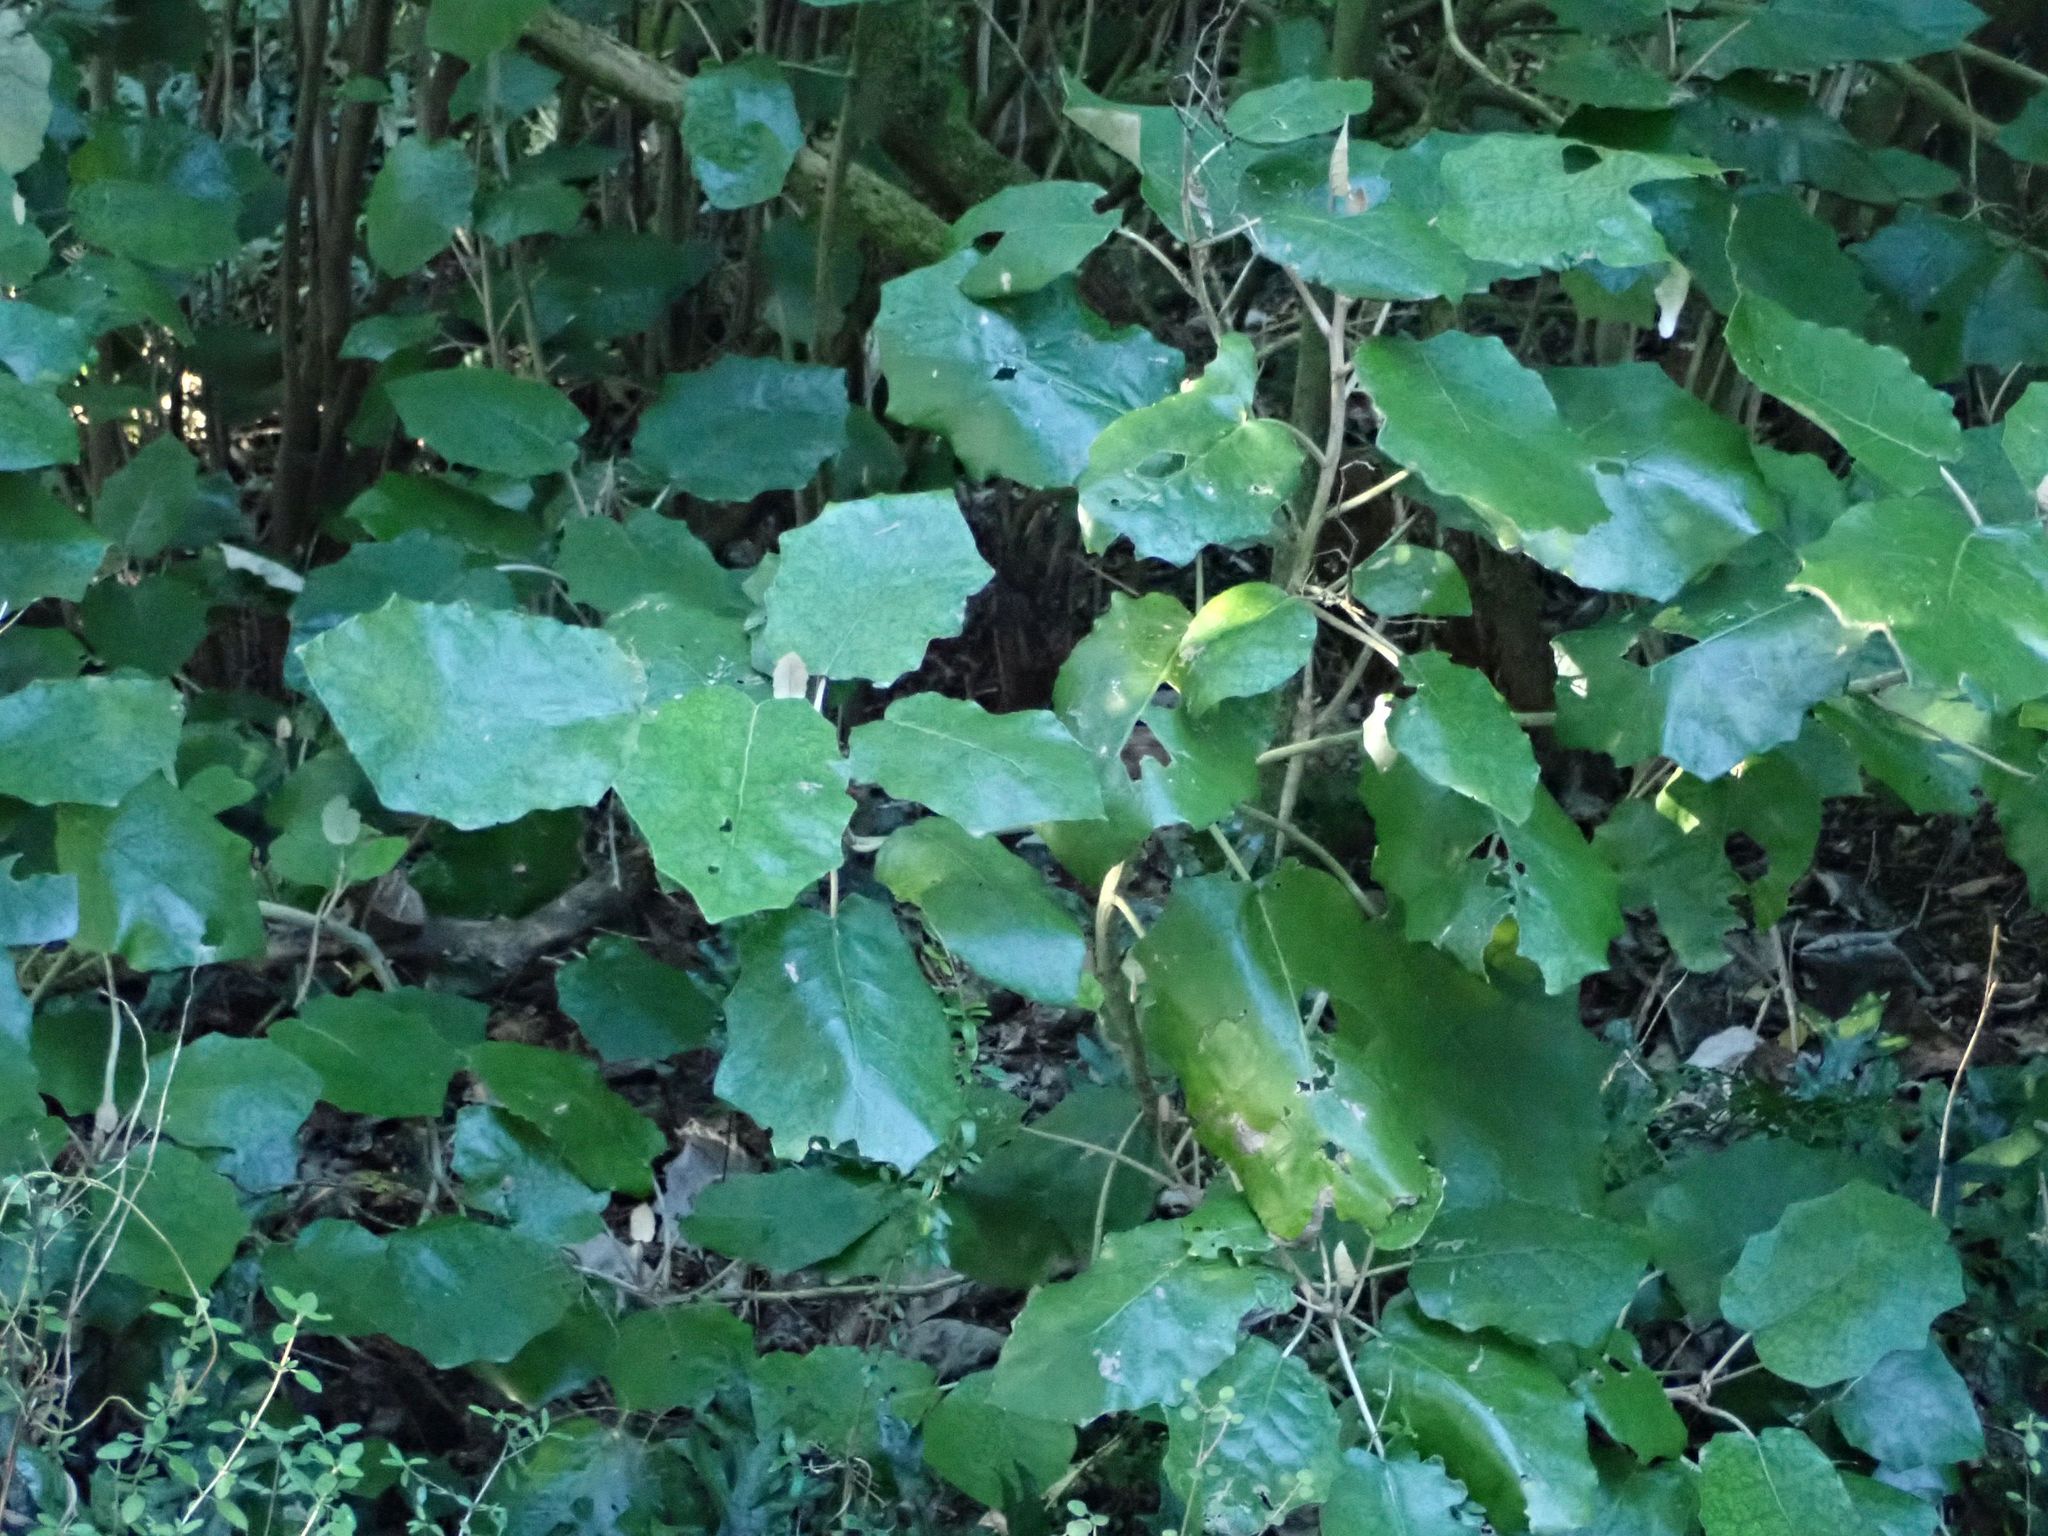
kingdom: Plantae
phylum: Tracheophyta
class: Magnoliopsida
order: Asterales
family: Asteraceae
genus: Brachyglottis
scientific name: Brachyglottis repanda
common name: Hedge ragwort
